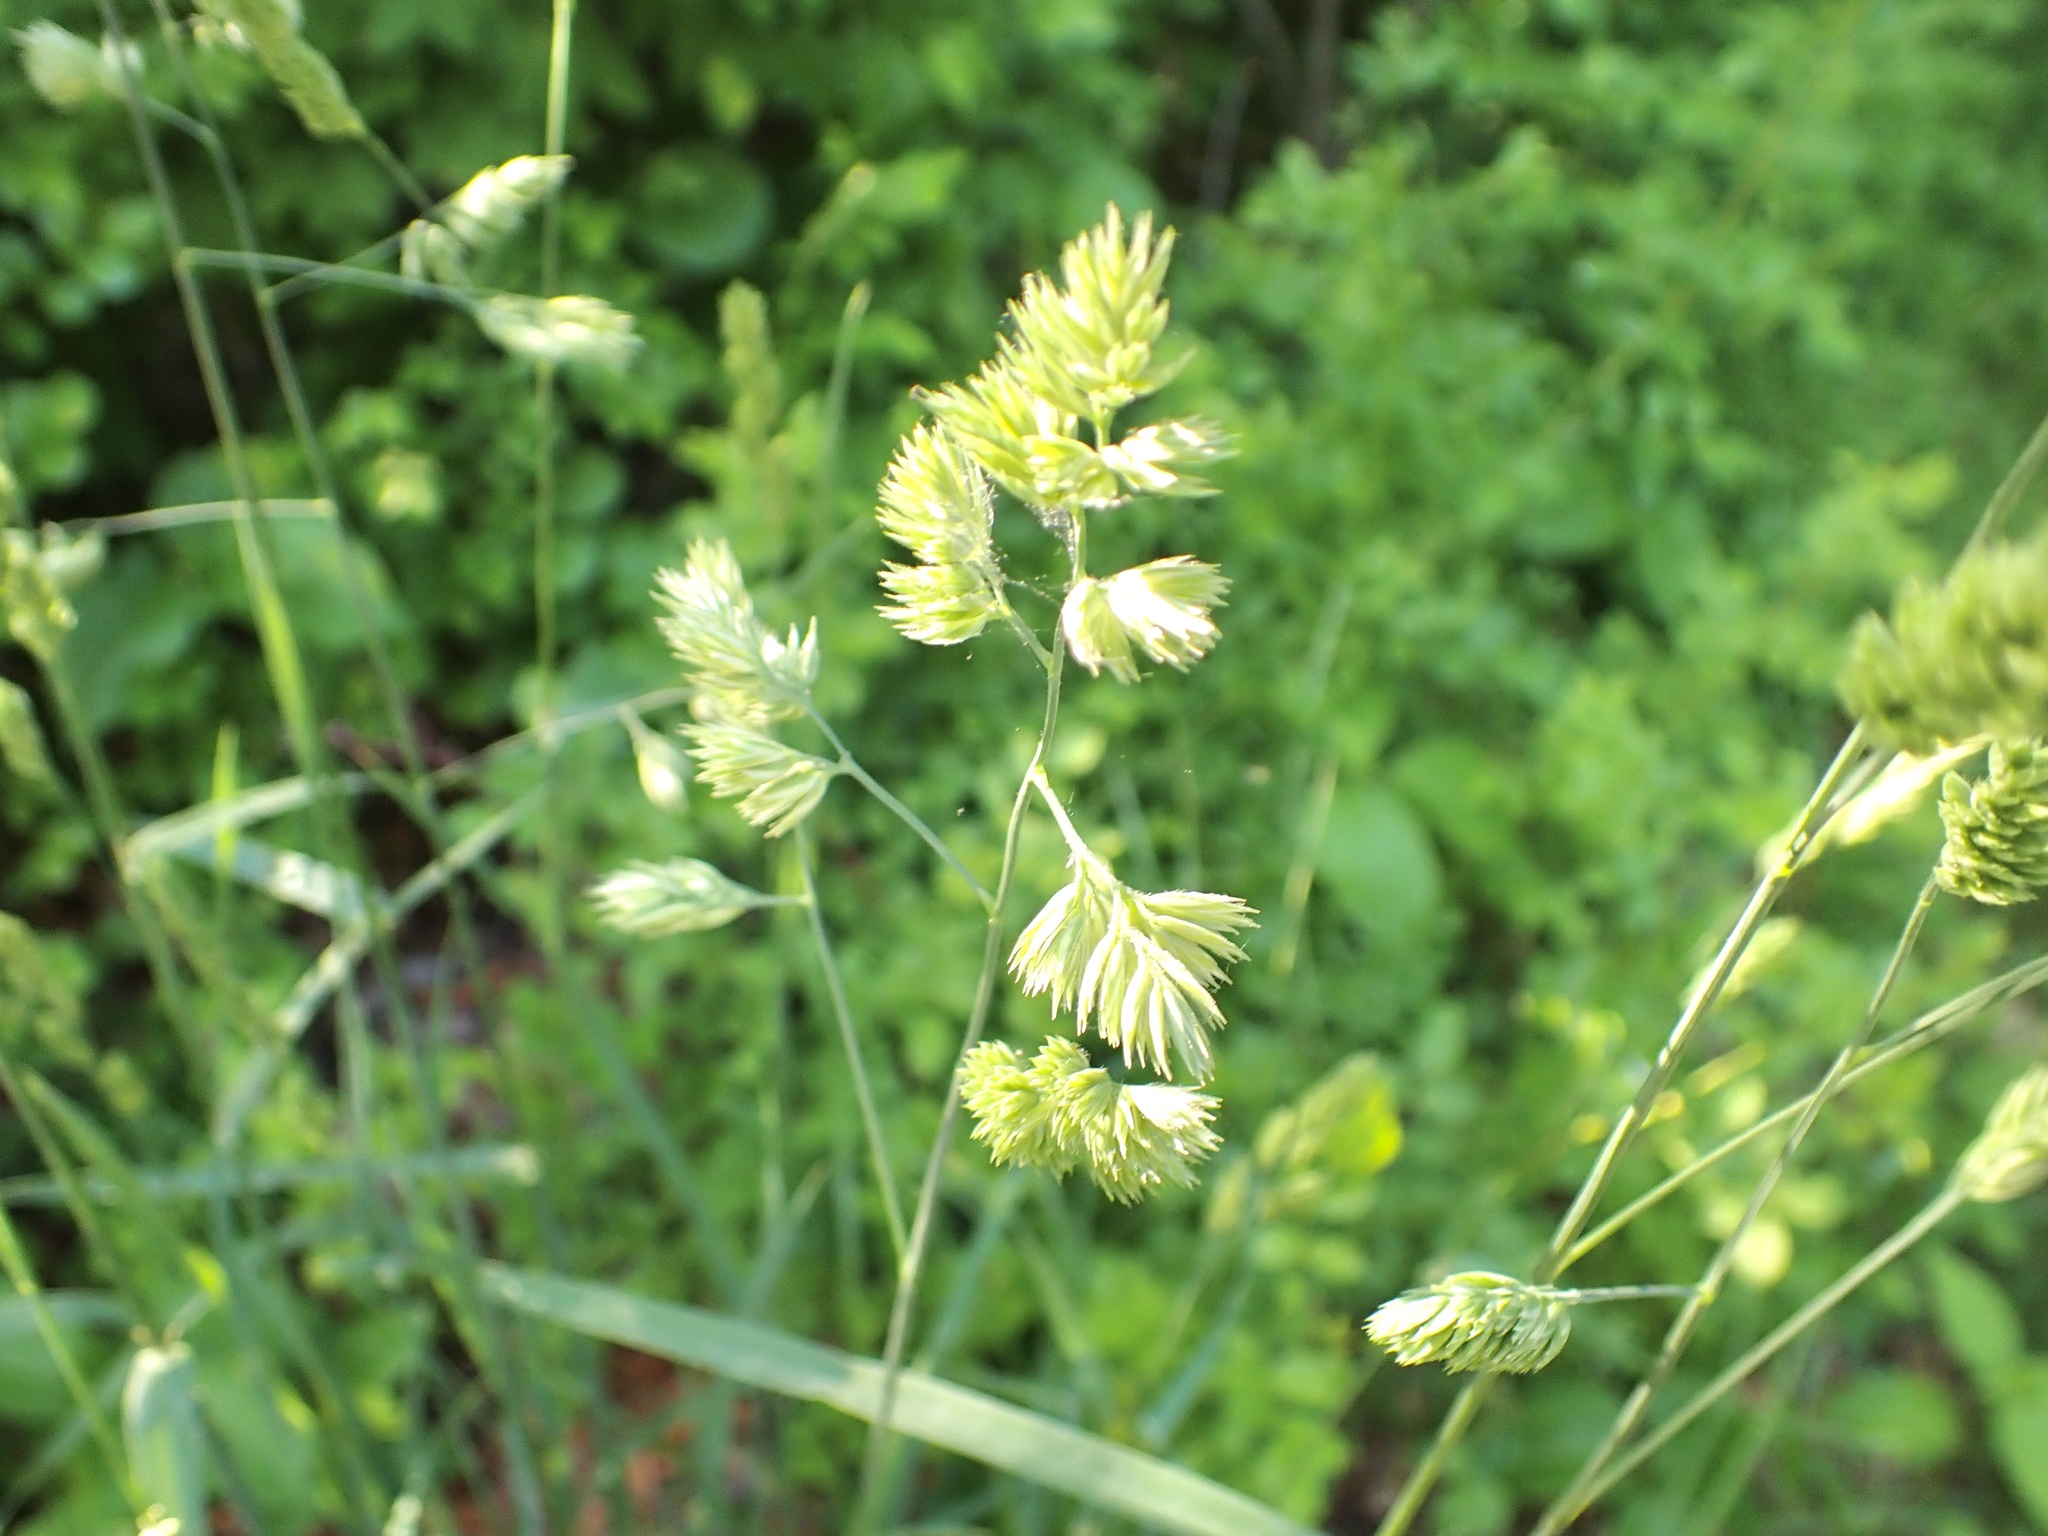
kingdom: Plantae
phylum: Tracheophyta
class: Liliopsida
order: Poales
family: Poaceae
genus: Dactylis
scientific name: Dactylis glomerata
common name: Orchardgrass
